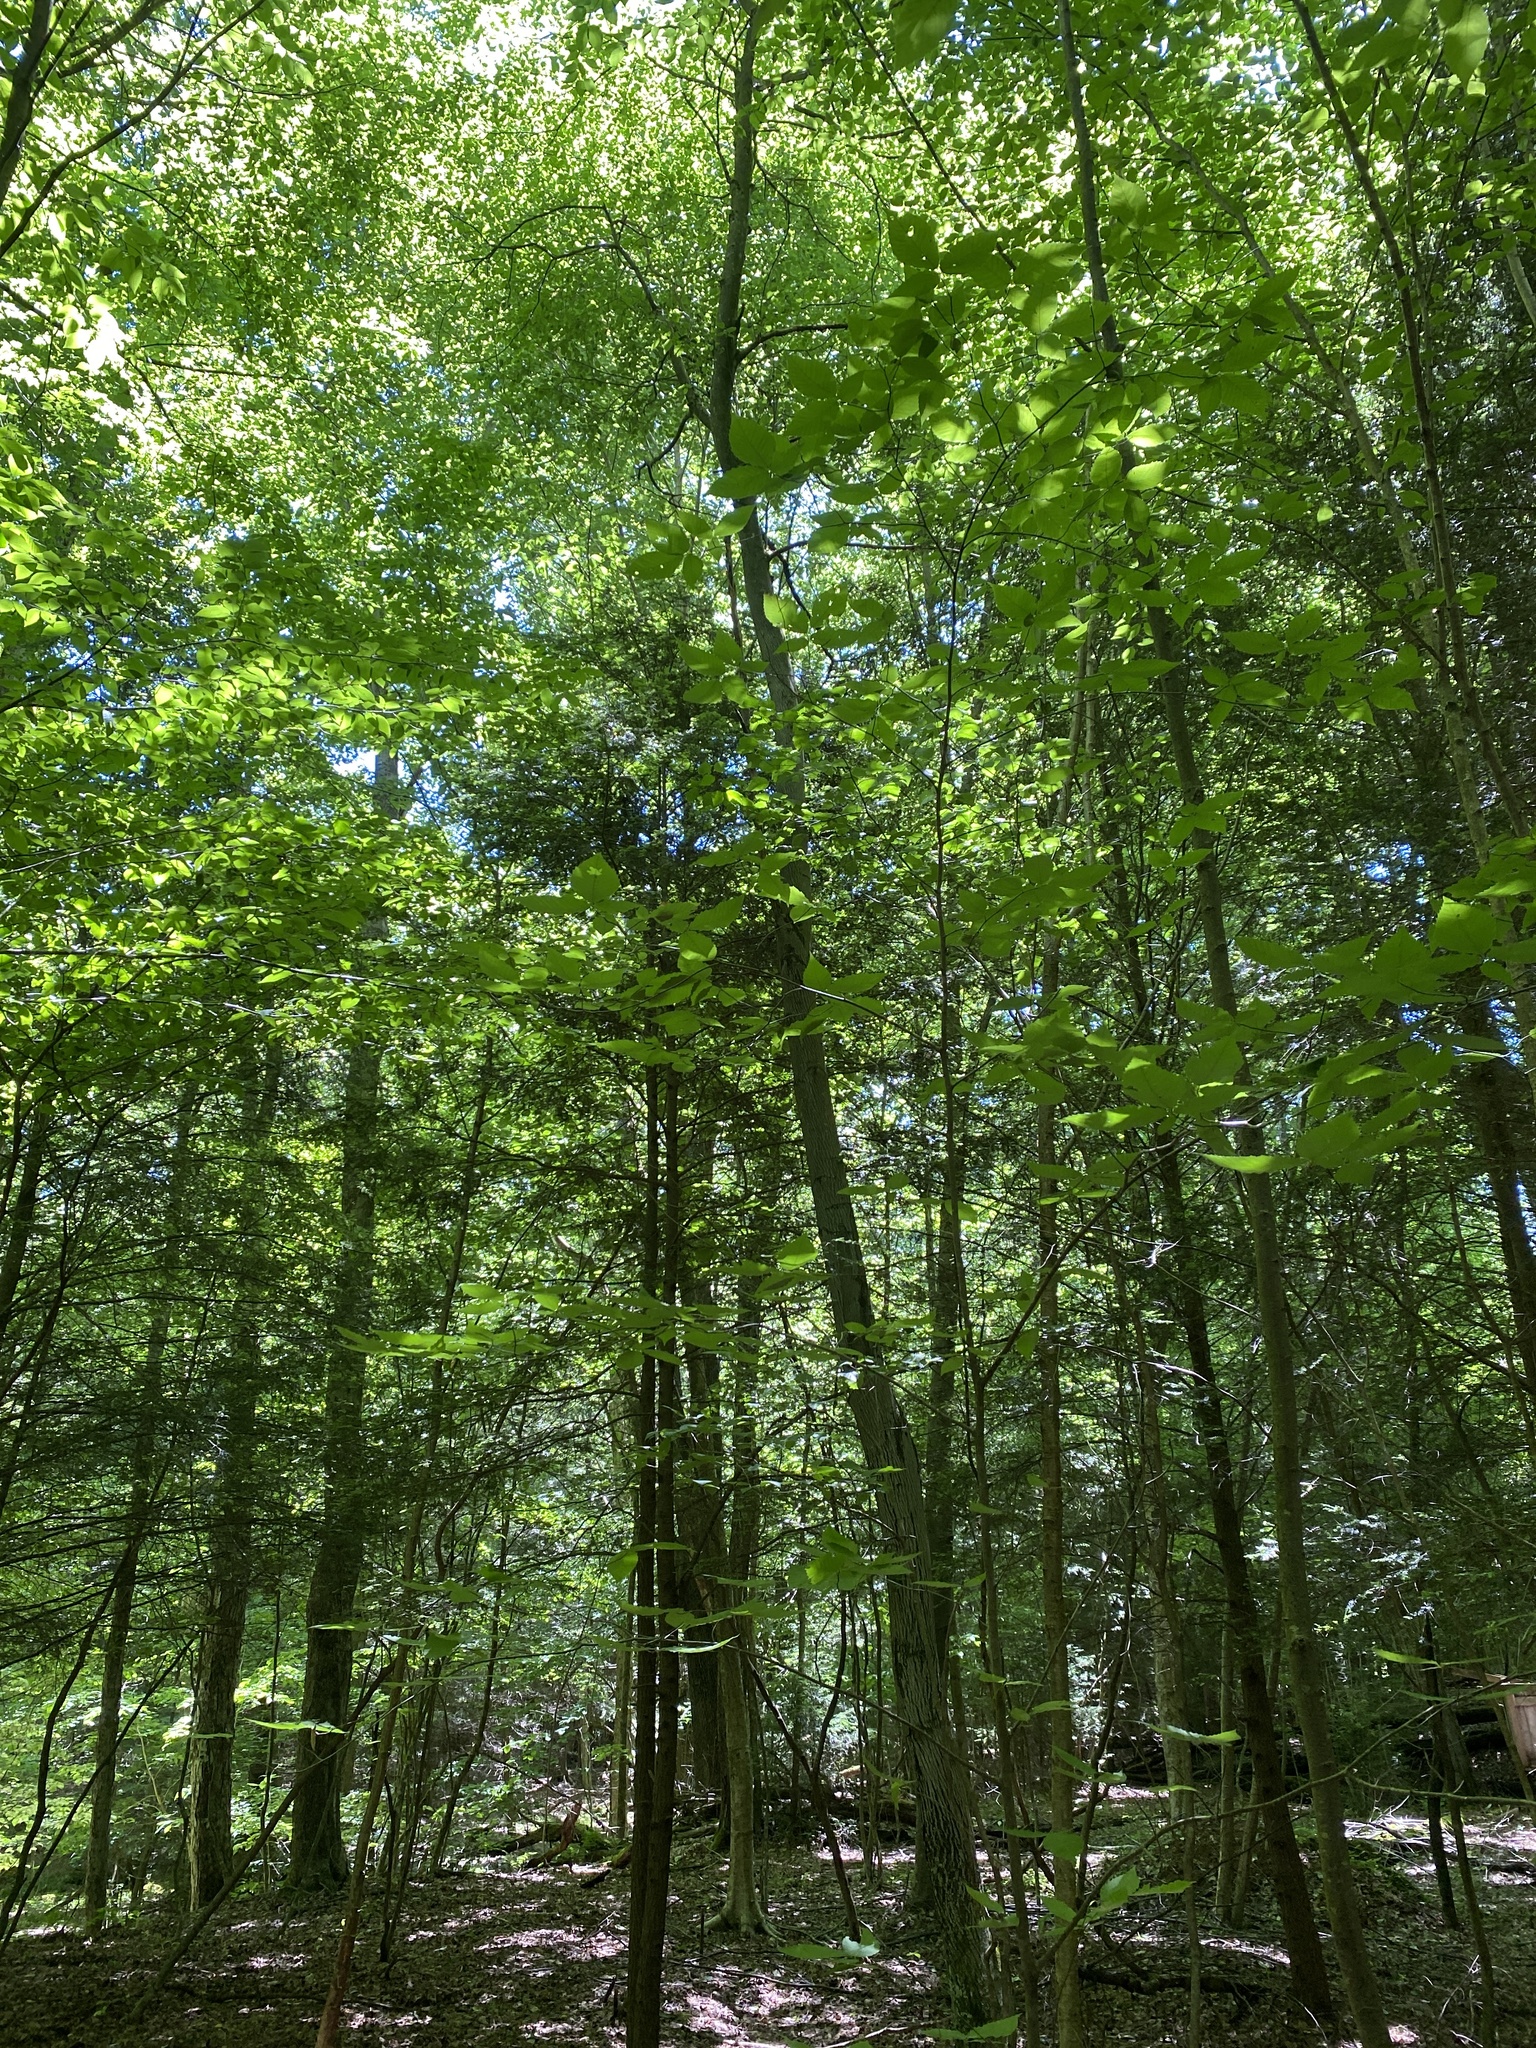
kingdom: Plantae
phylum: Tracheophyta
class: Pinopsida
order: Pinales
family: Pinaceae
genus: Tsuga
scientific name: Tsuga canadensis
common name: Eastern hemlock
